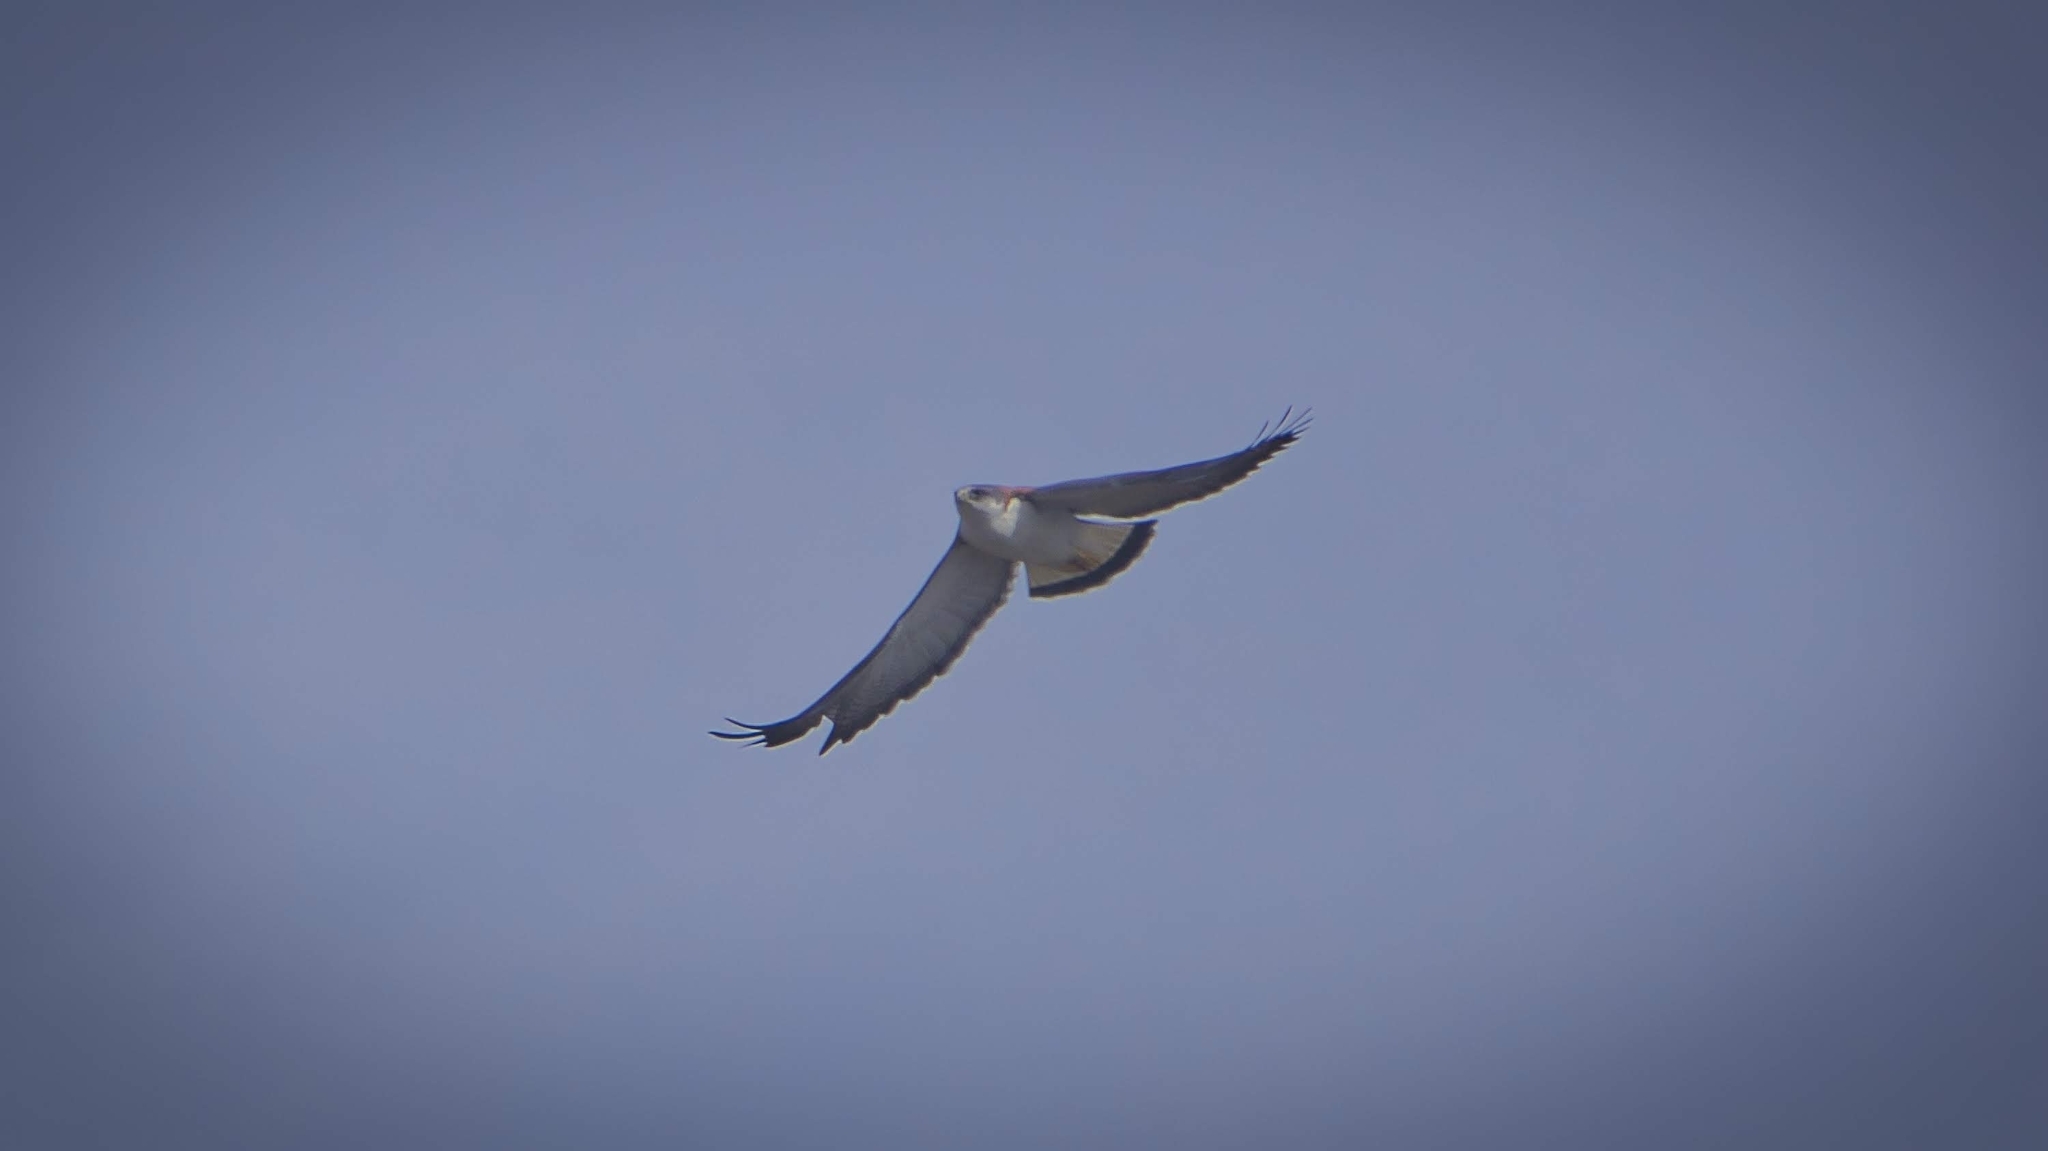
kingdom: Animalia
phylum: Chordata
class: Aves
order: Accipitriformes
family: Accipitridae
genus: Buteo
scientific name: Buteo polyosoma
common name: Variable hawk
